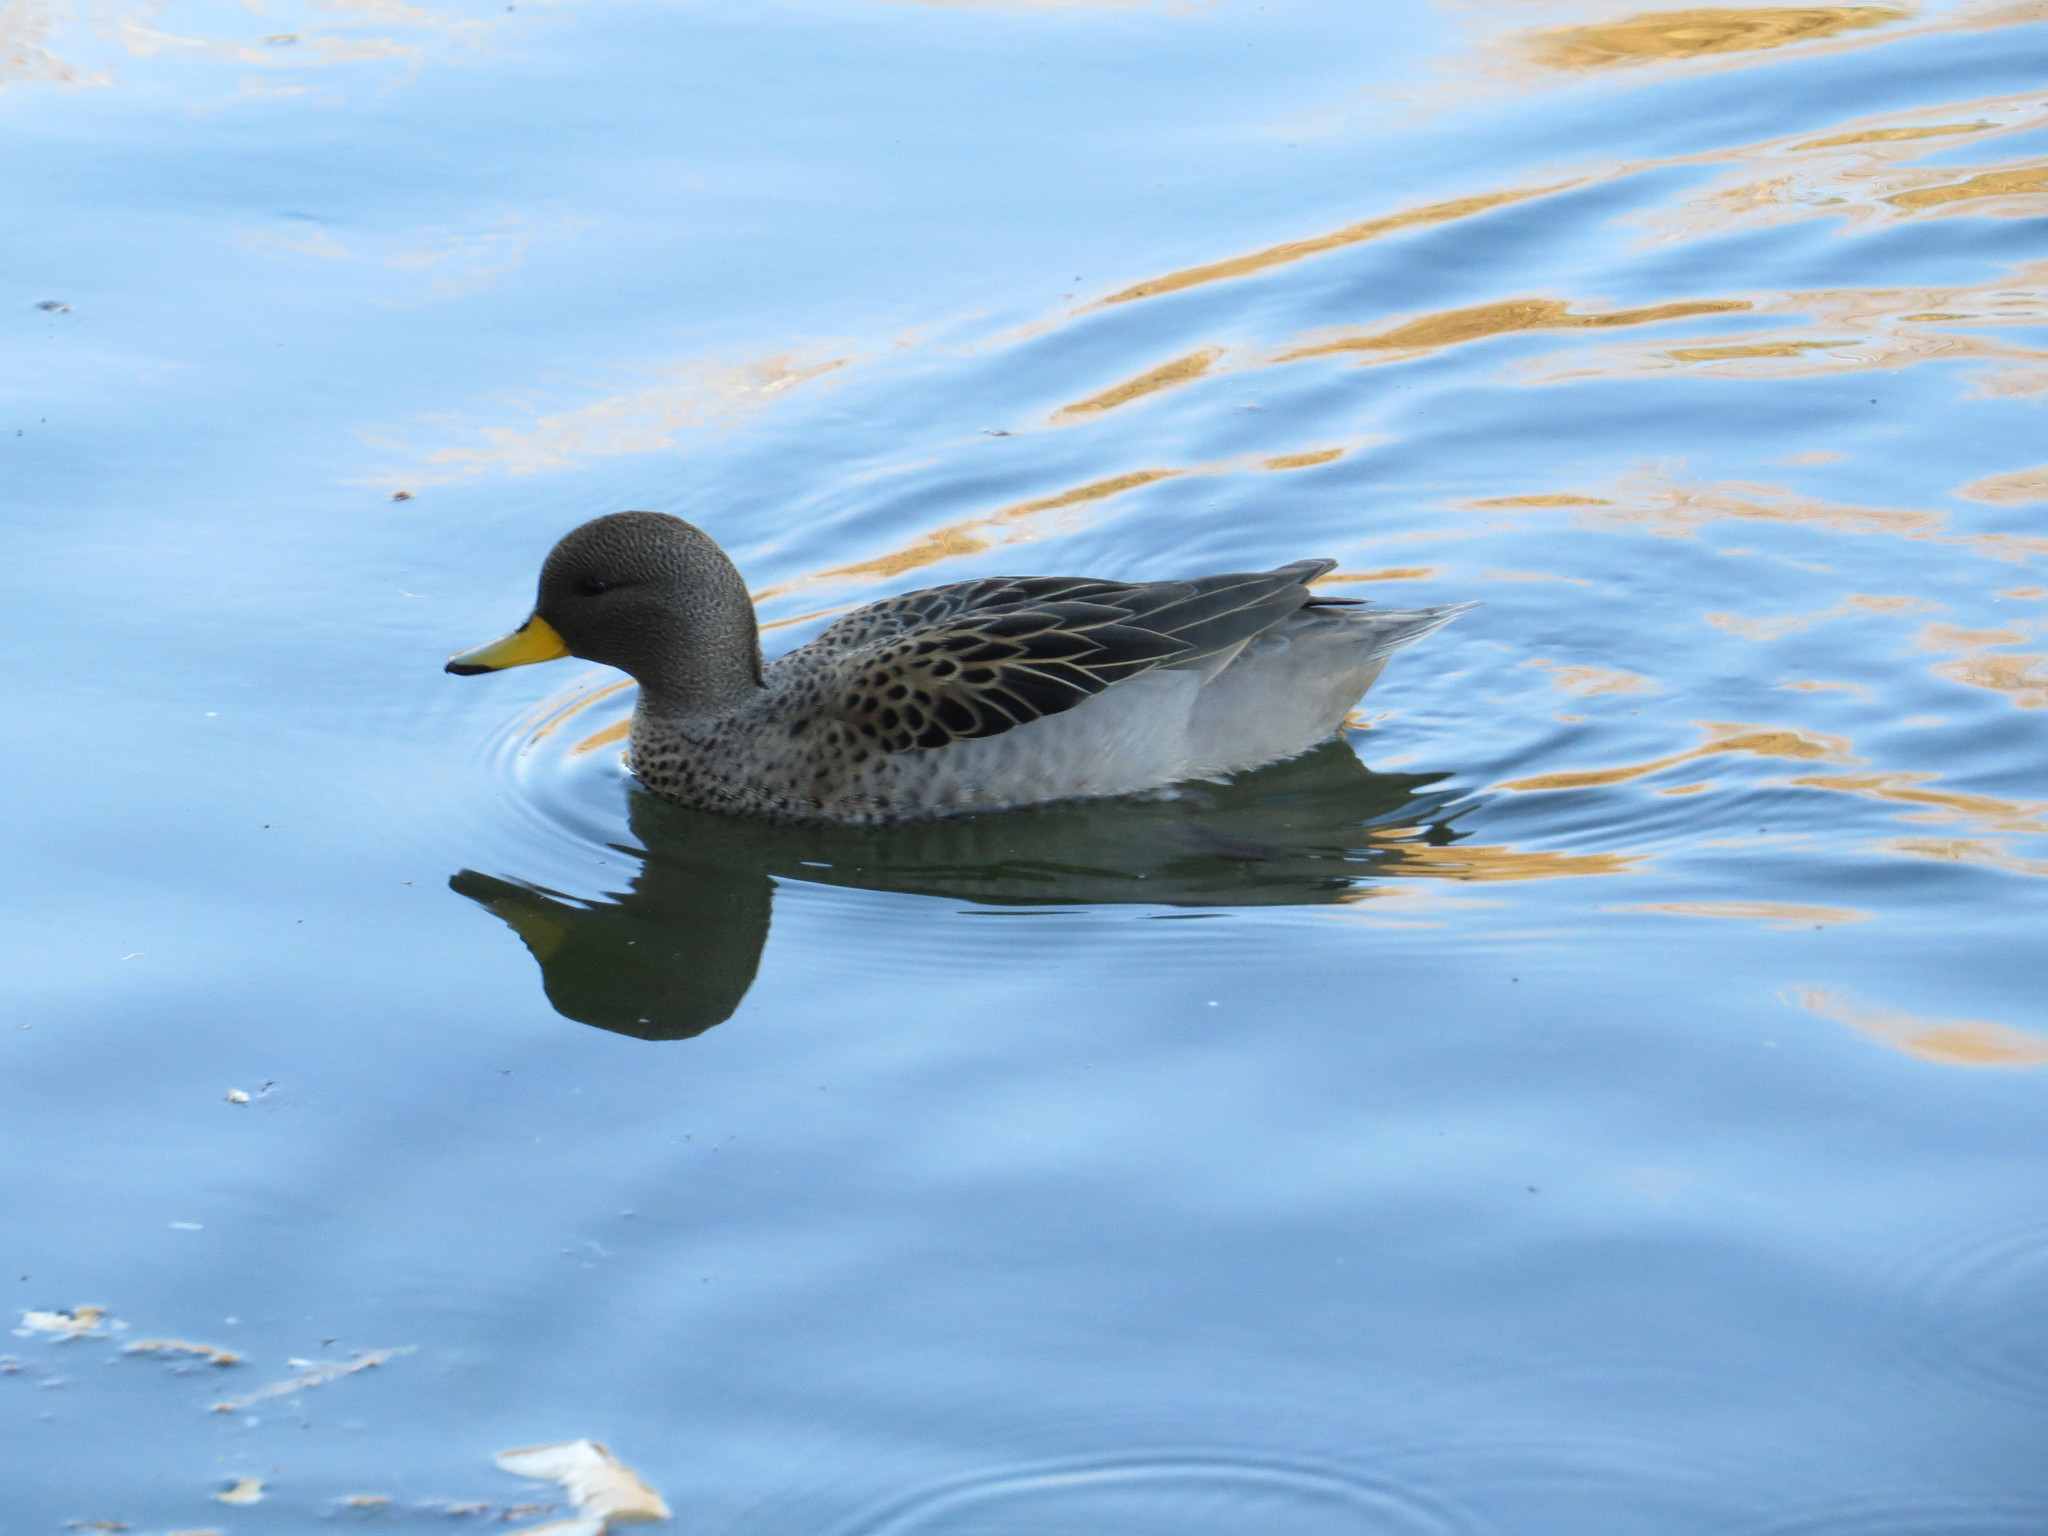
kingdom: Animalia
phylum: Chordata
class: Aves
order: Anseriformes
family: Anatidae
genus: Anas
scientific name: Anas flavirostris
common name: Yellow-billed teal
